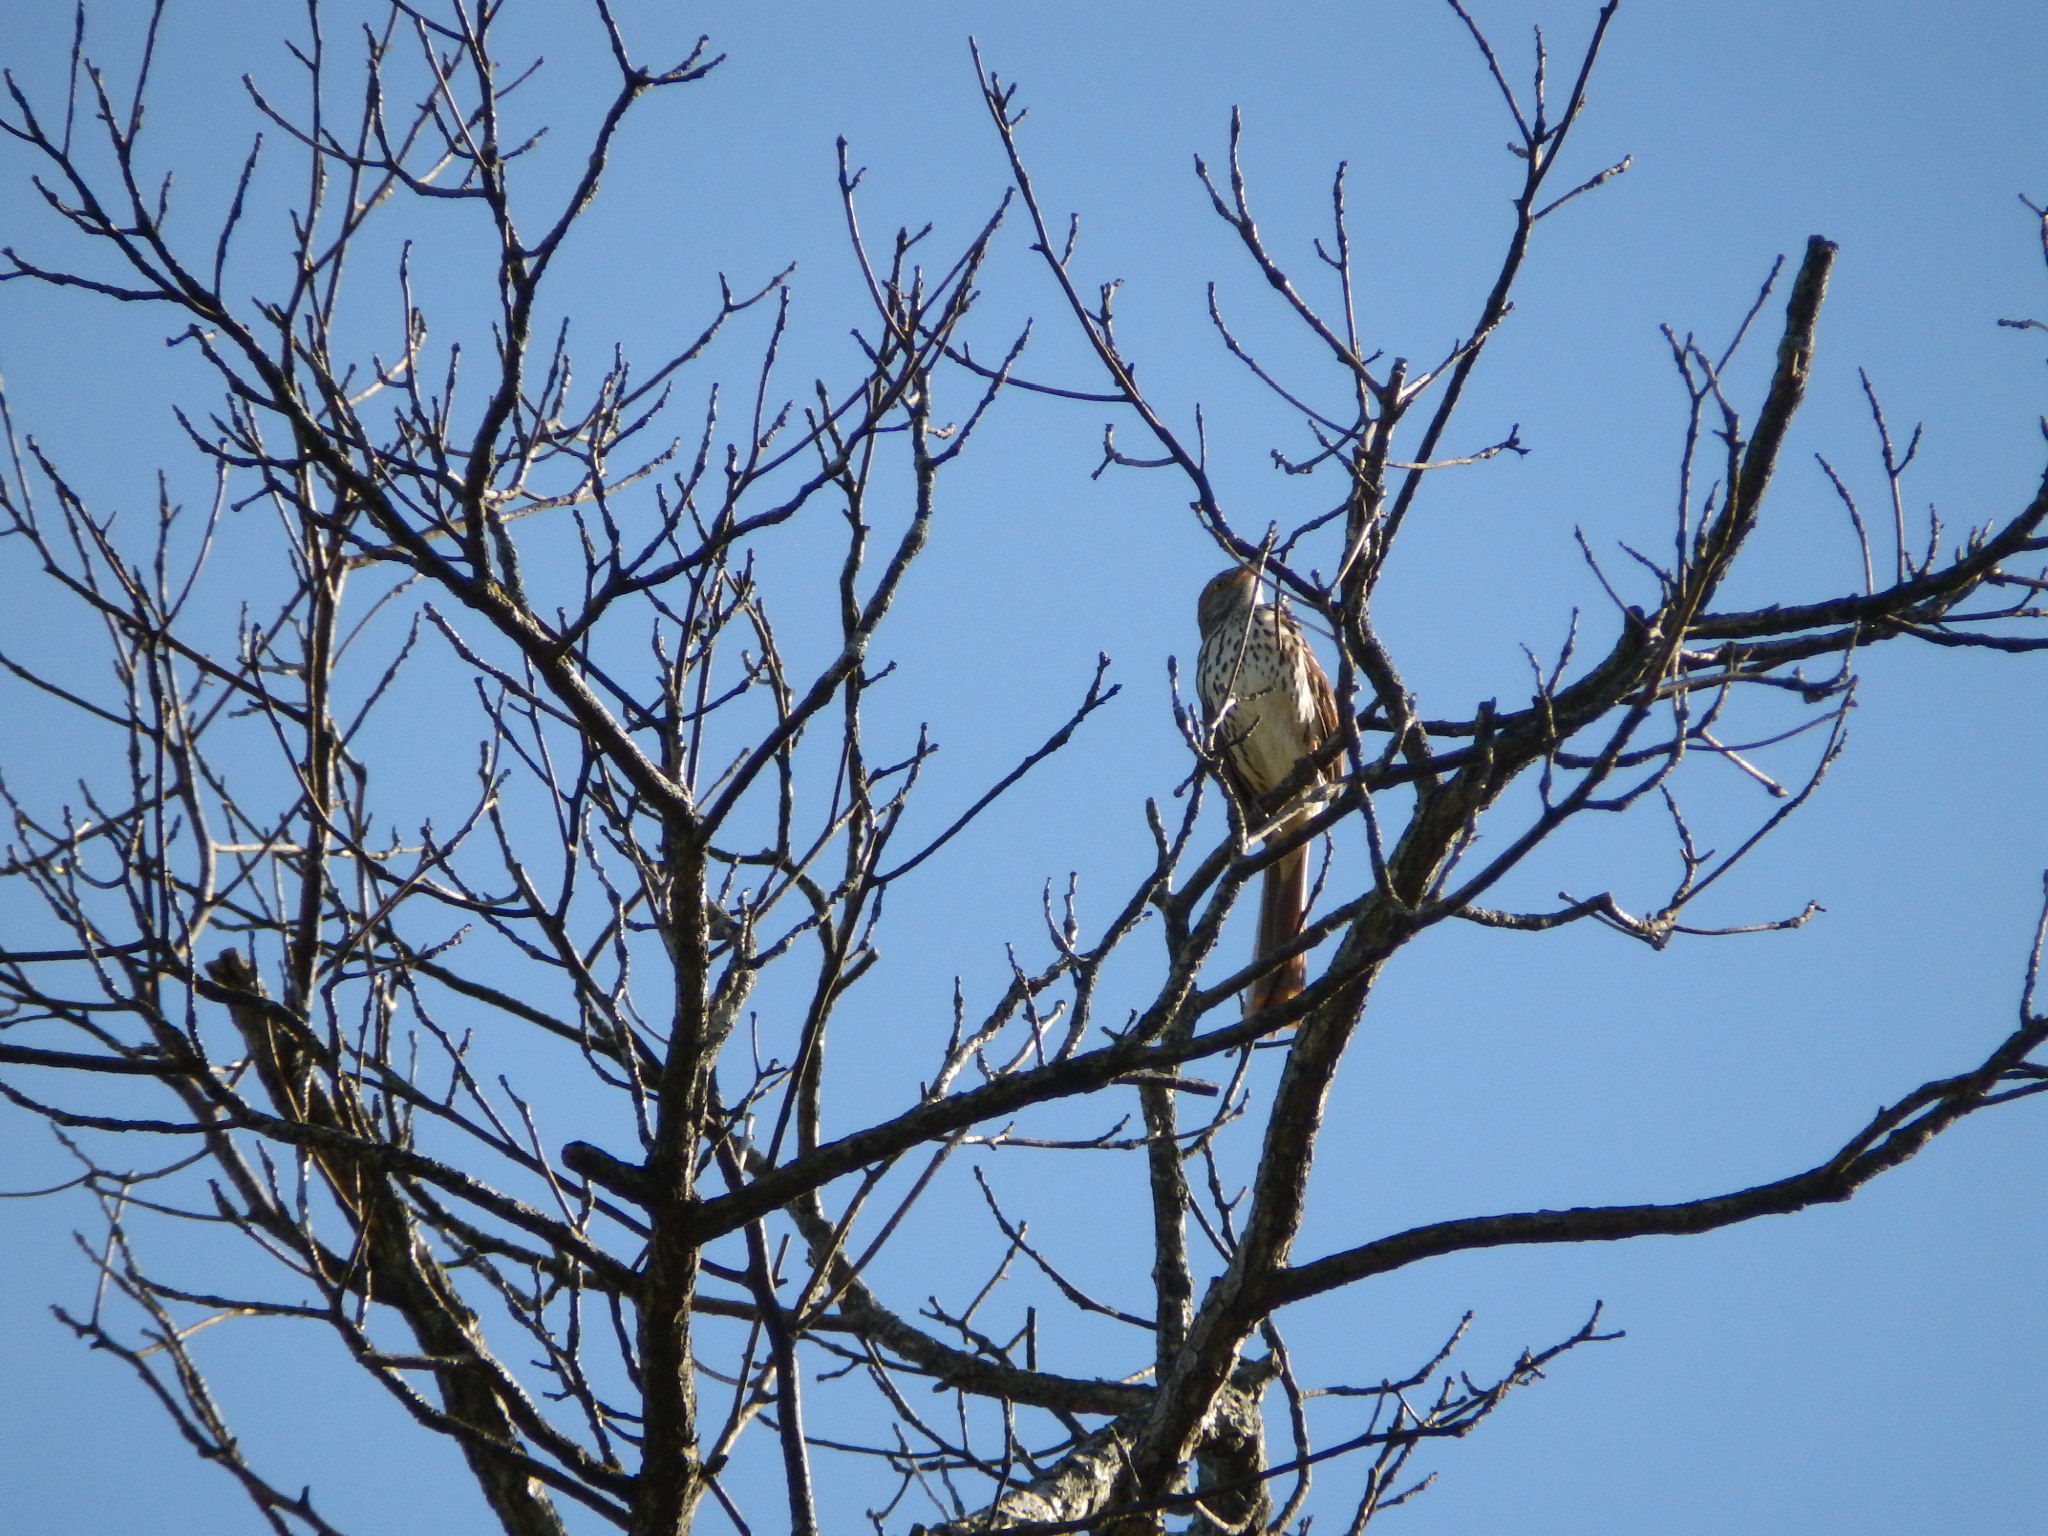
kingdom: Animalia
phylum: Chordata
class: Aves
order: Passeriformes
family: Mimidae
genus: Toxostoma
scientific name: Toxostoma rufum
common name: Brown thrasher
